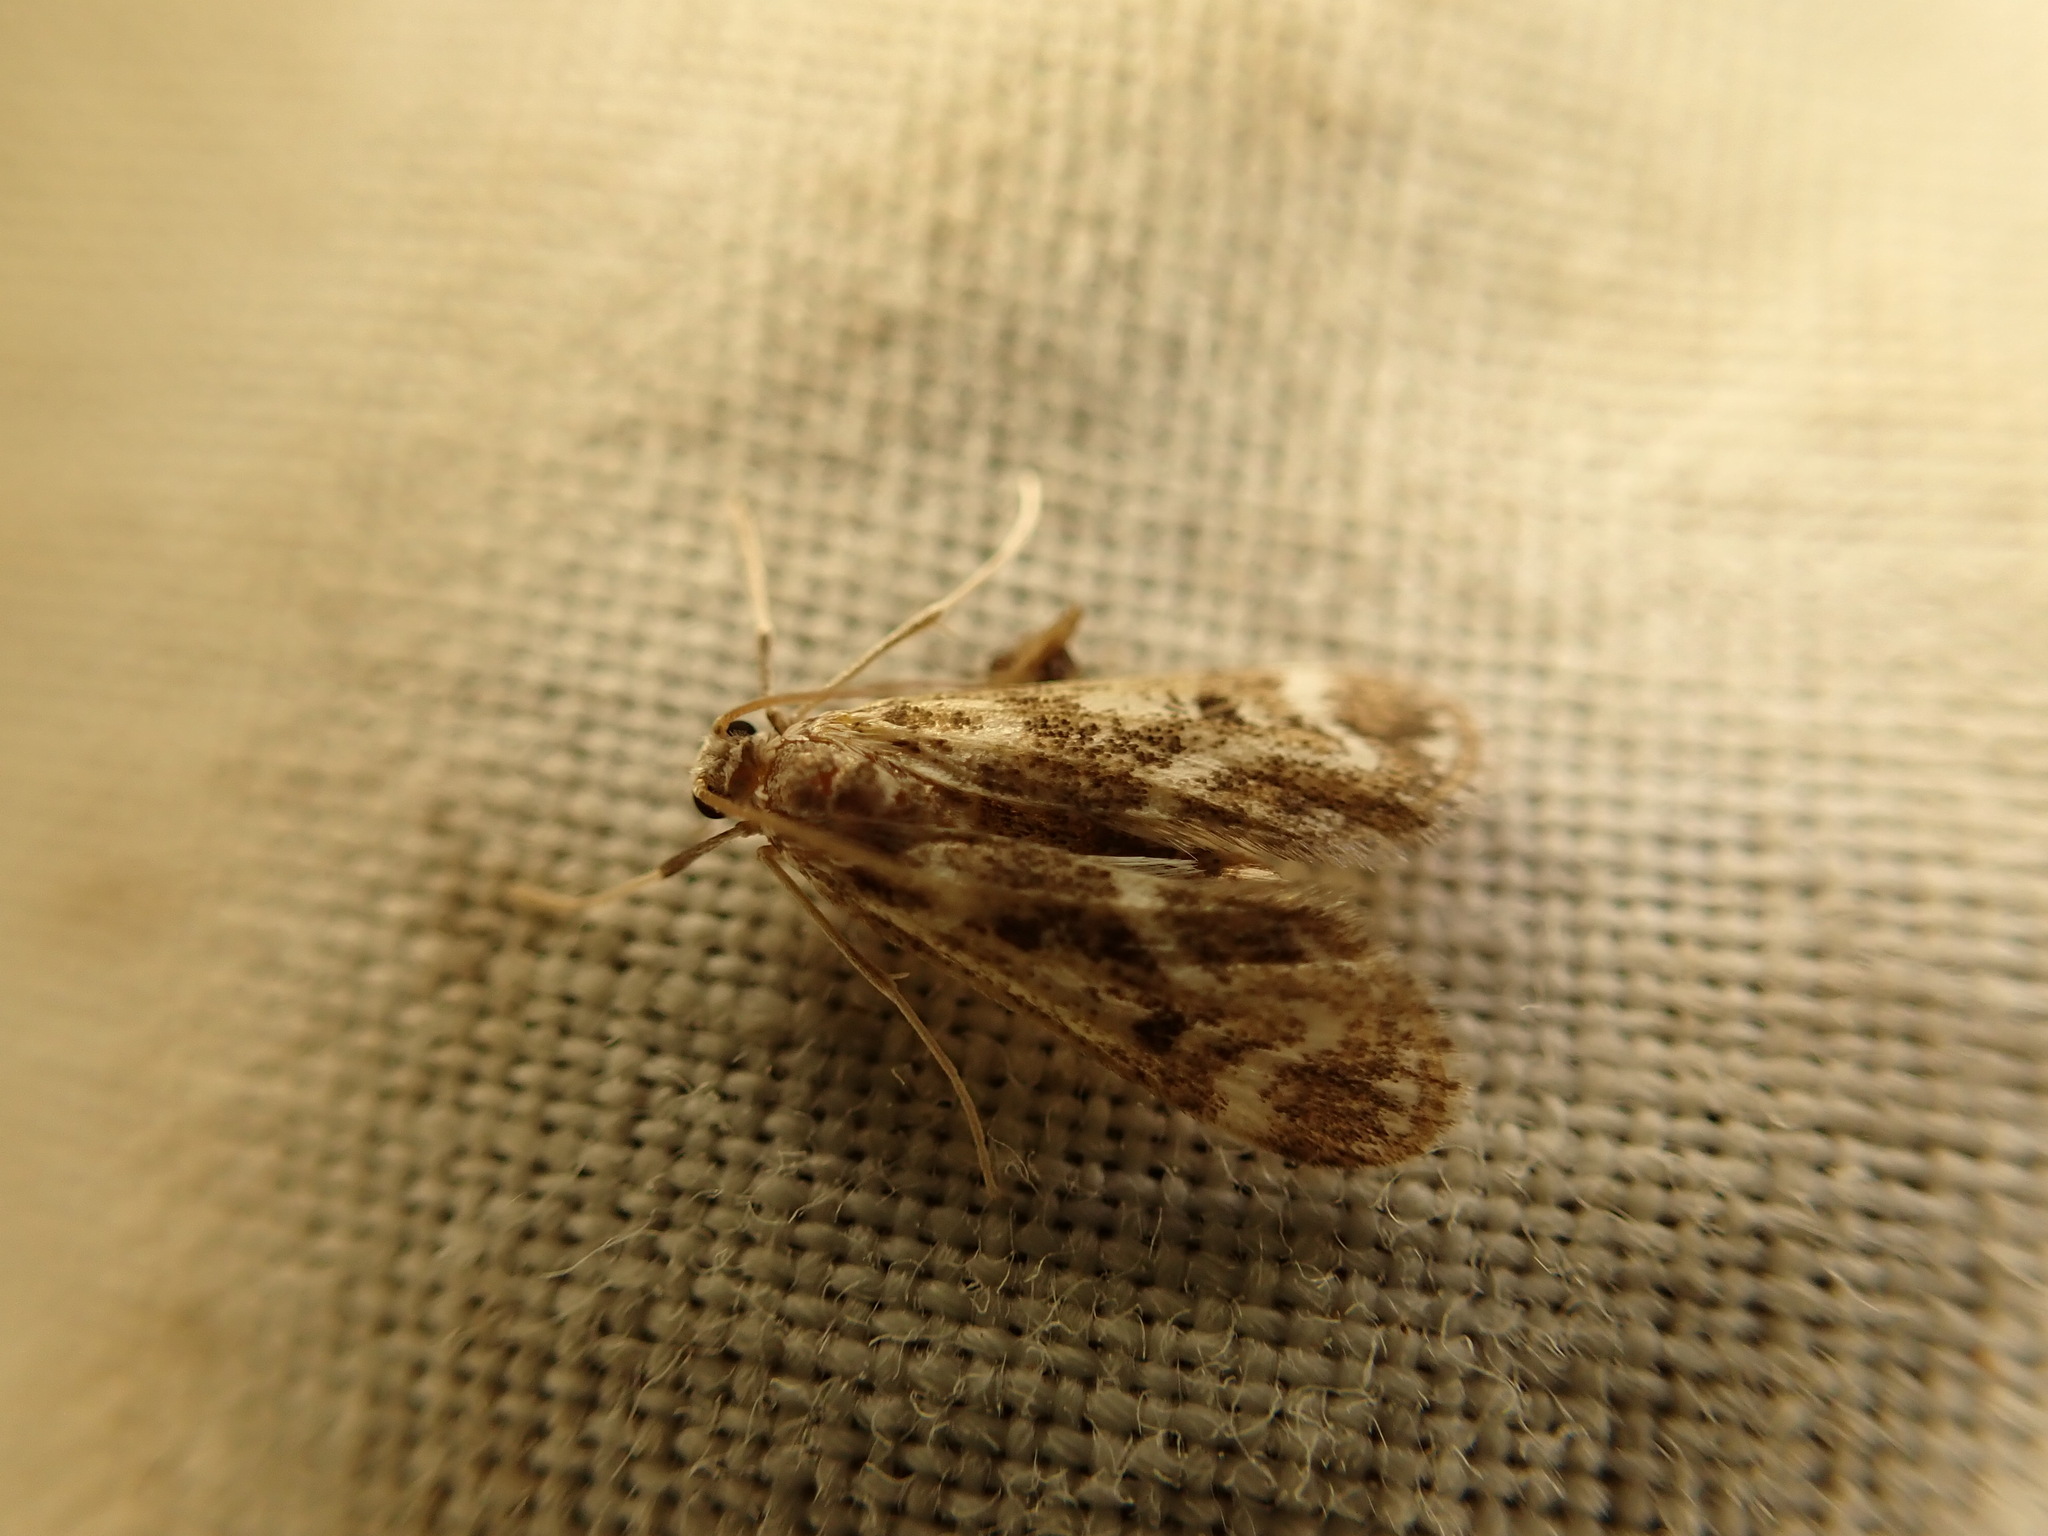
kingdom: Animalia
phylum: Arthropoda
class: Insecta
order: Lepidoptera
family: Crambidae
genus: Hygraula
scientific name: Hygraula nitens
